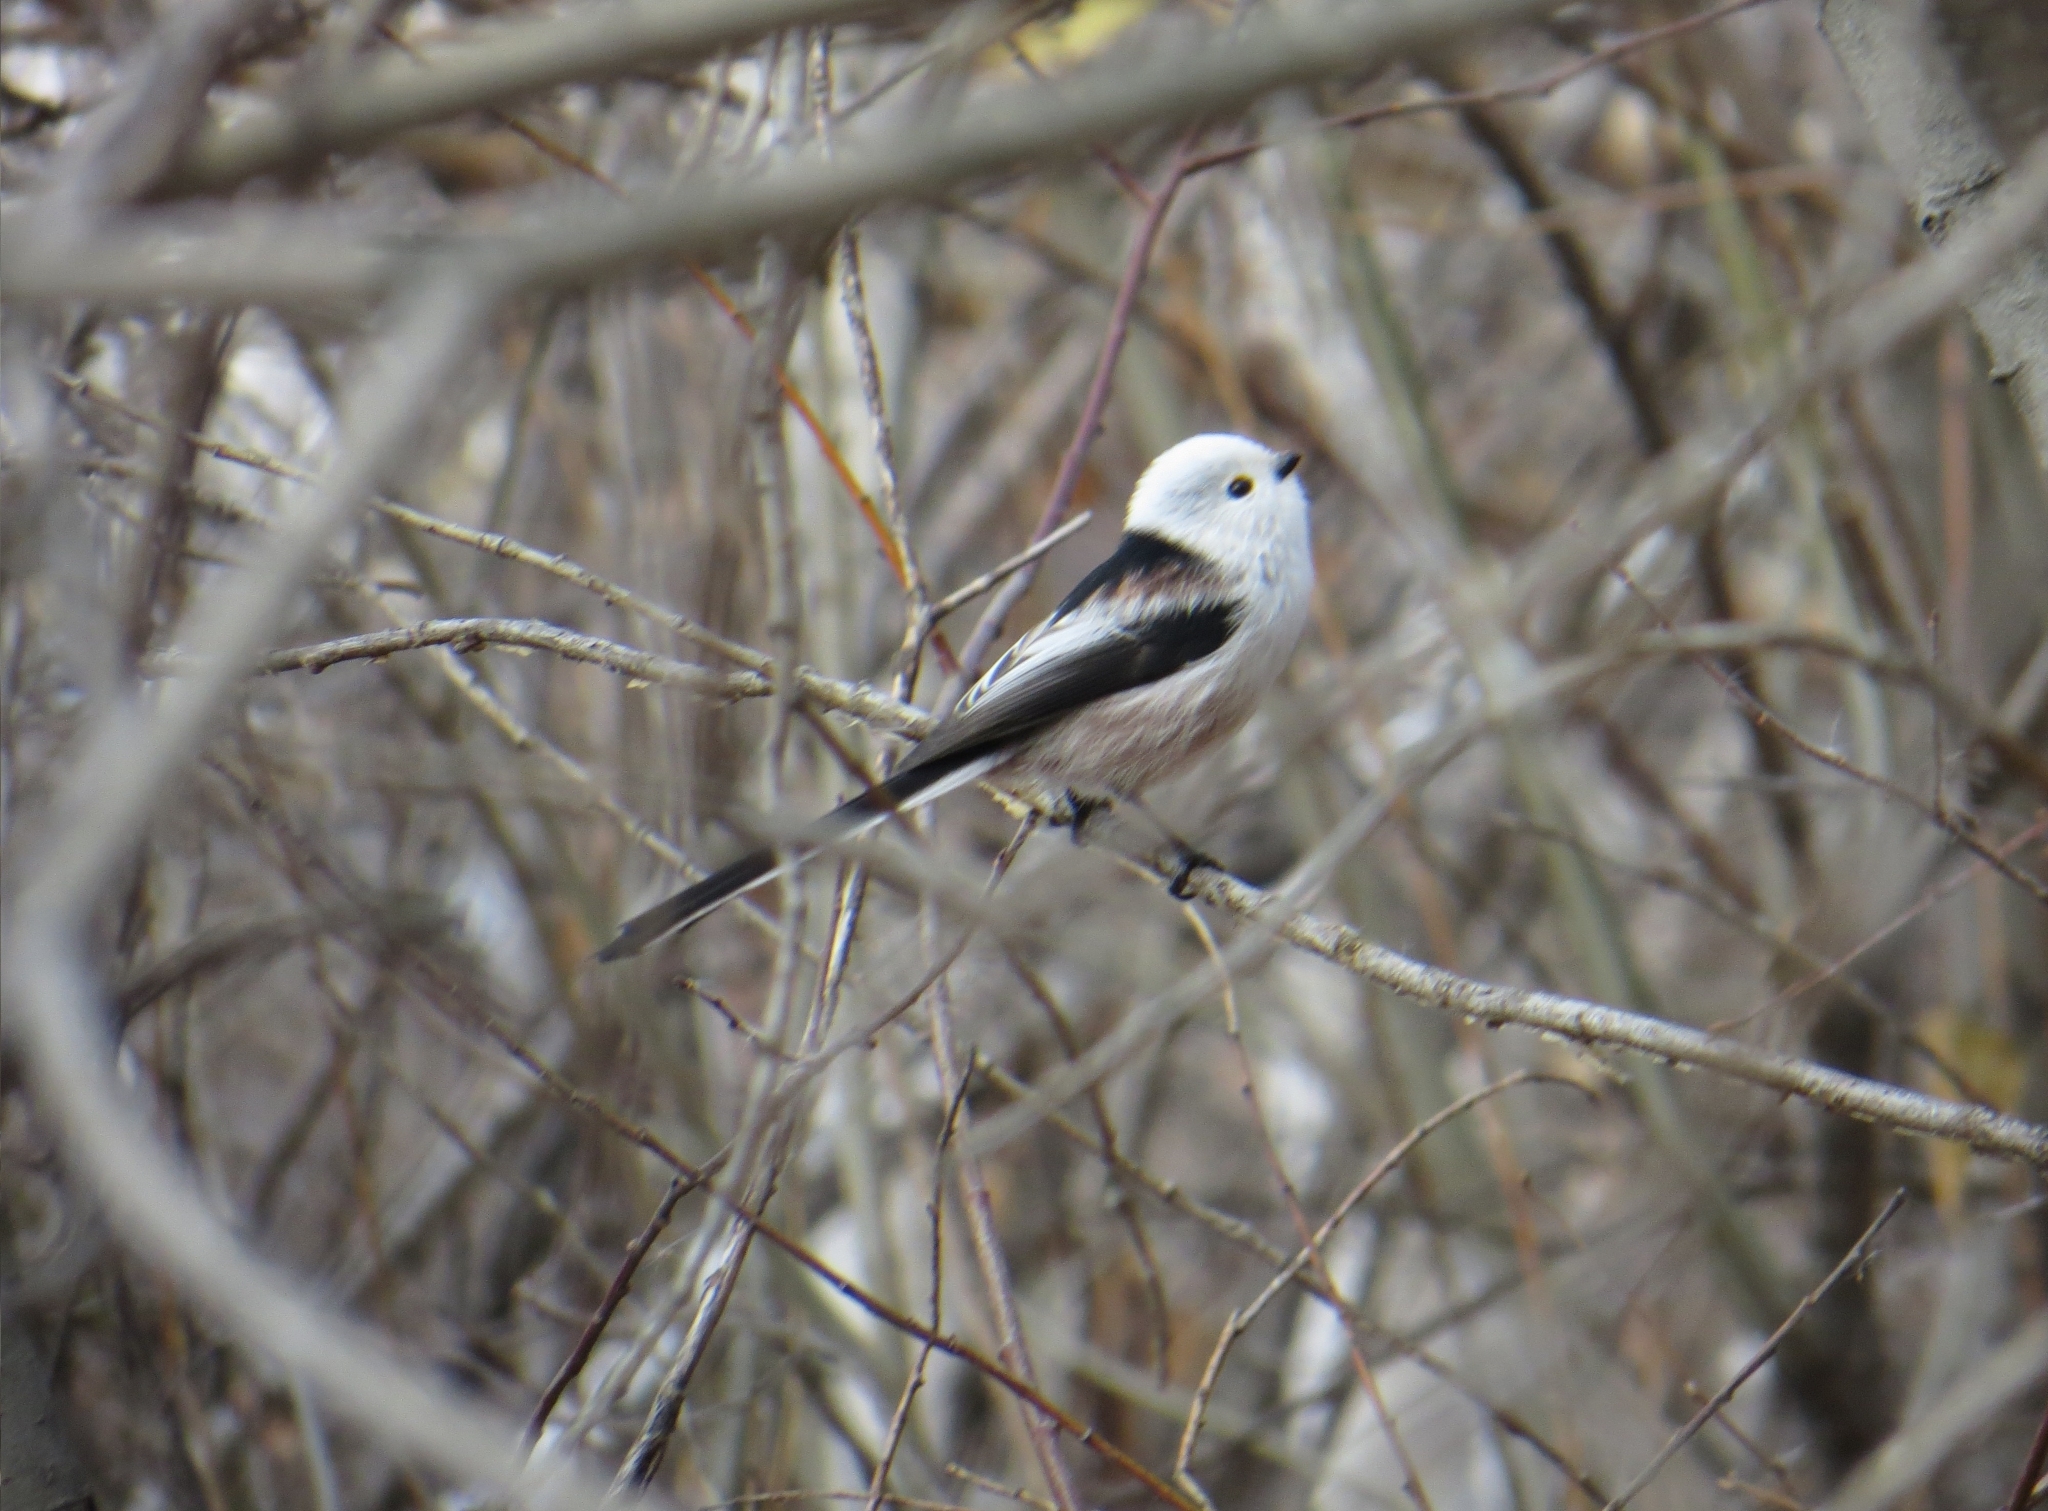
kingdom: Animalia
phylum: Chordata
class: Aves
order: Passeriformes
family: Aegithalidae
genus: Aegithalos
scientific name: Aegithalos caudatus
